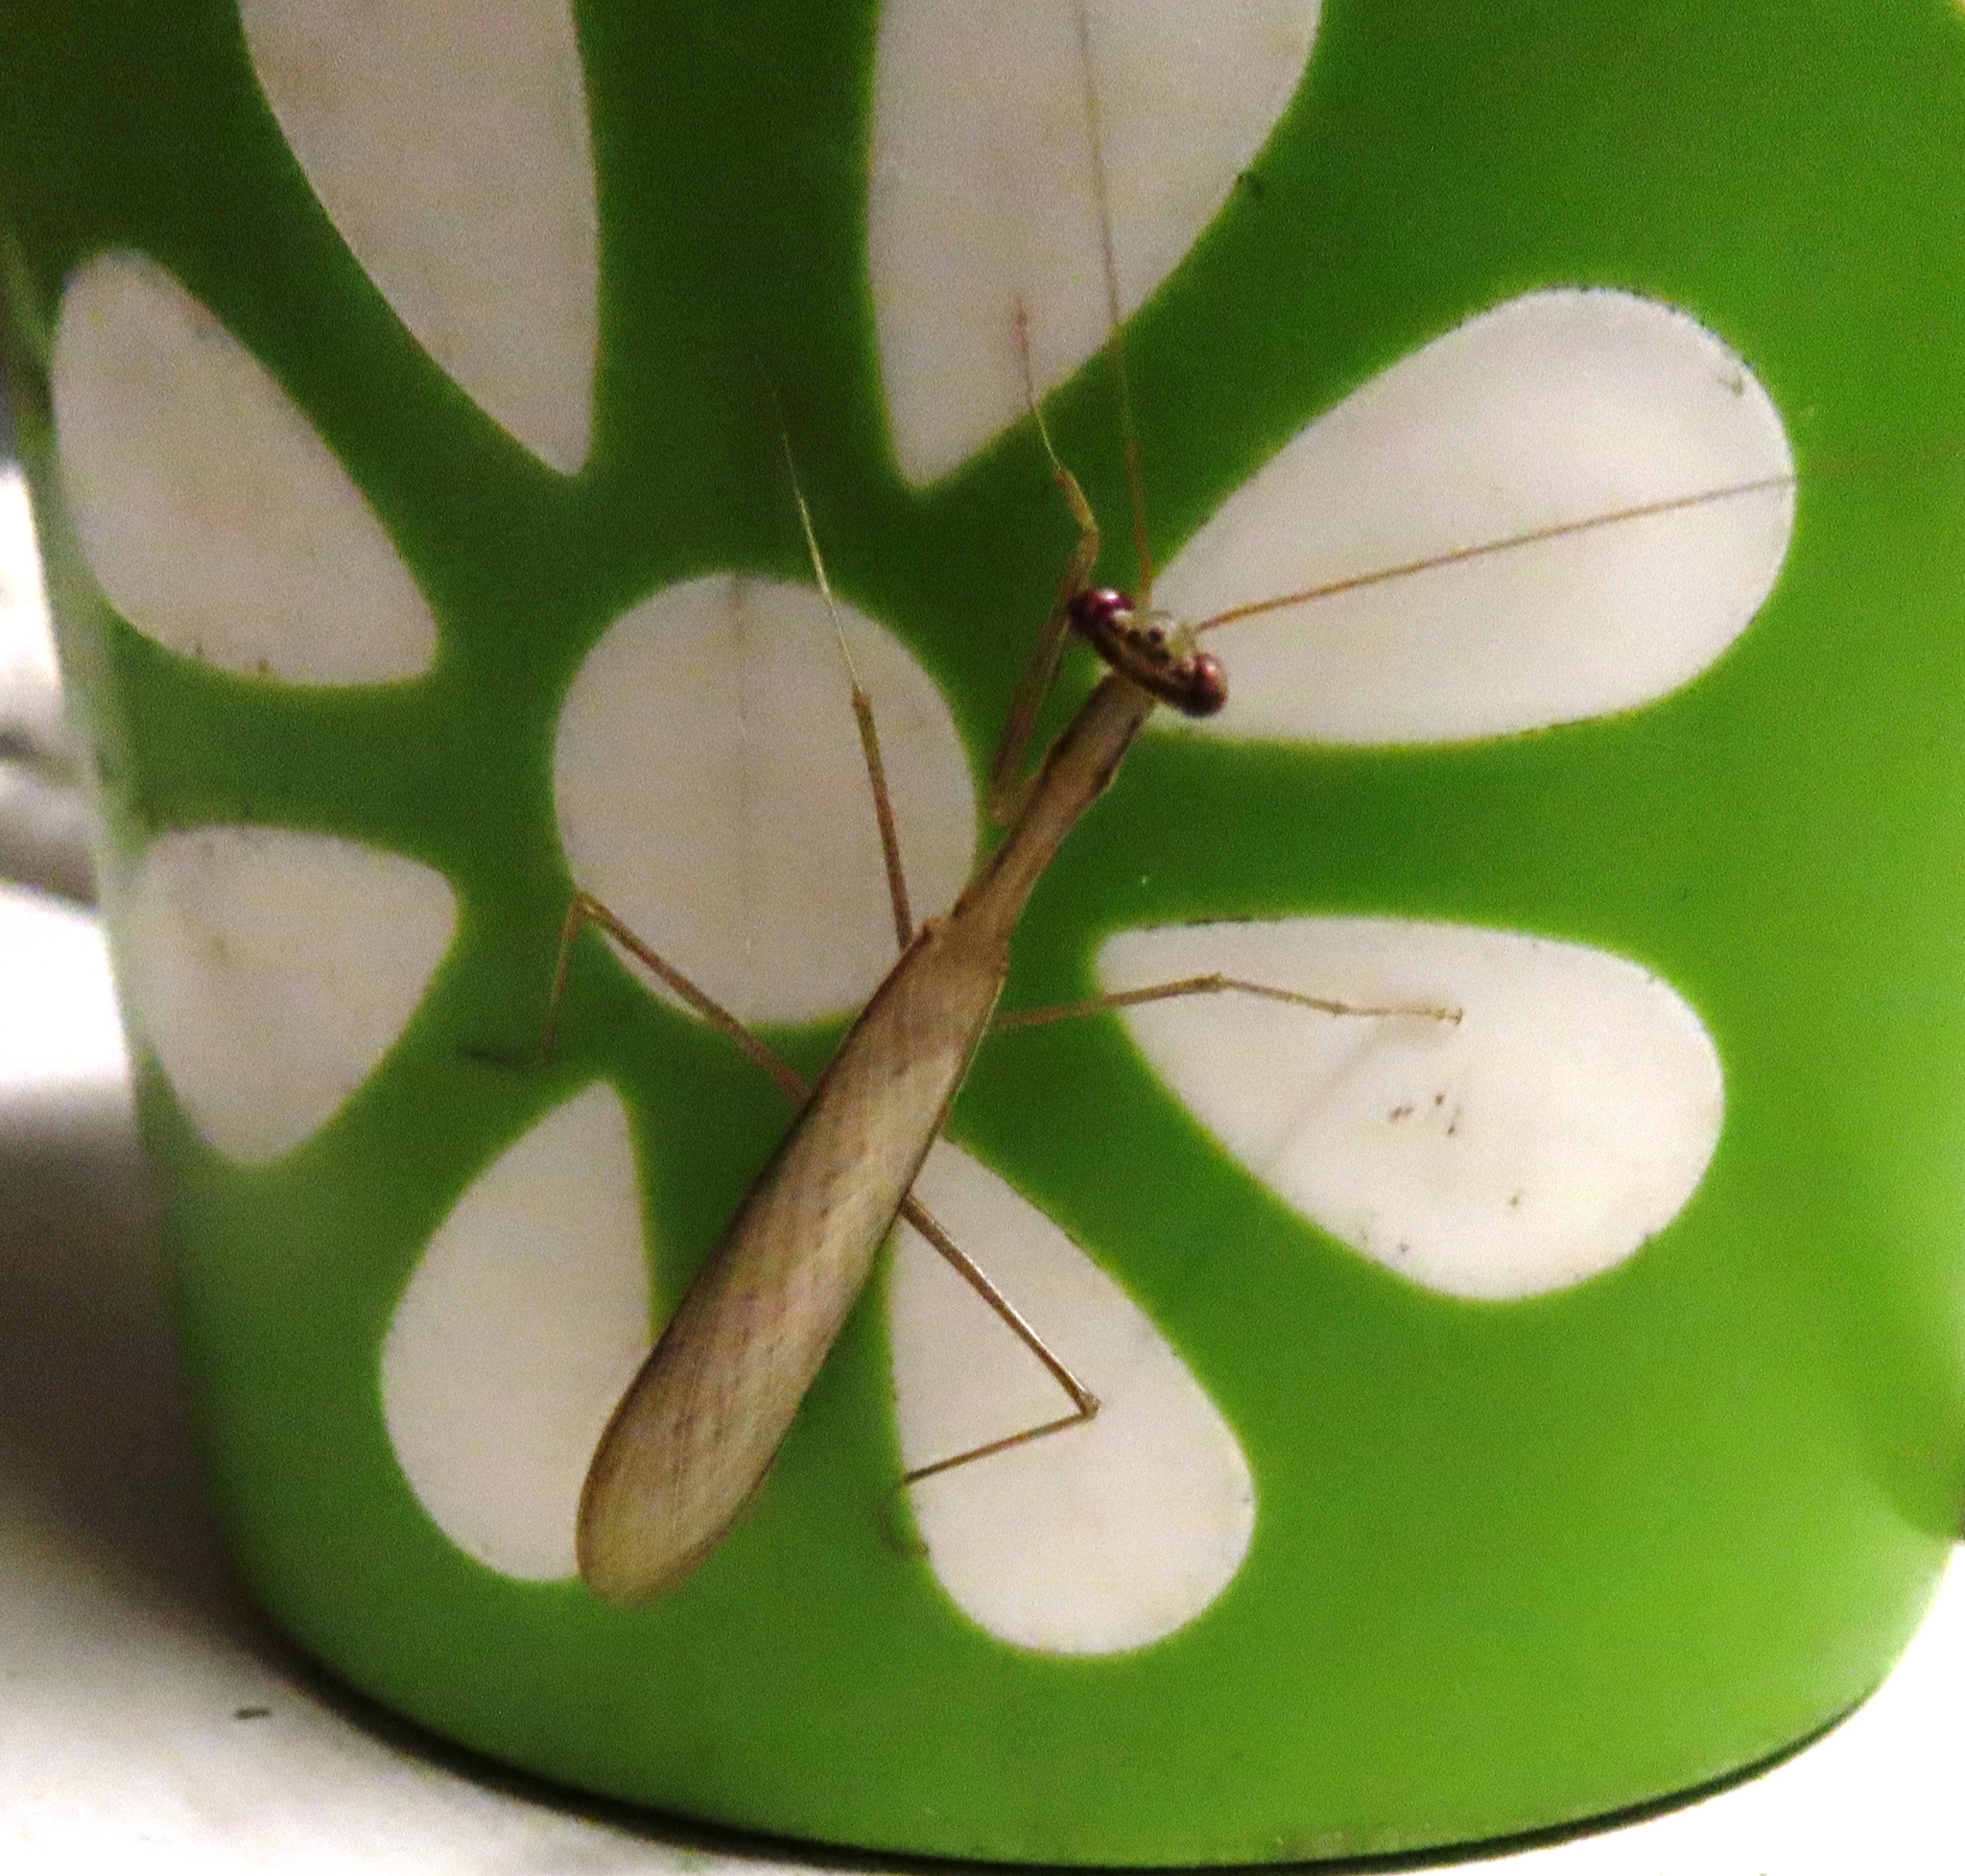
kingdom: Animalia
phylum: Arthropoda
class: Insecta
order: Mantodea
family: Miomantidae
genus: Miomantis
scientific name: Miomantis caffra
